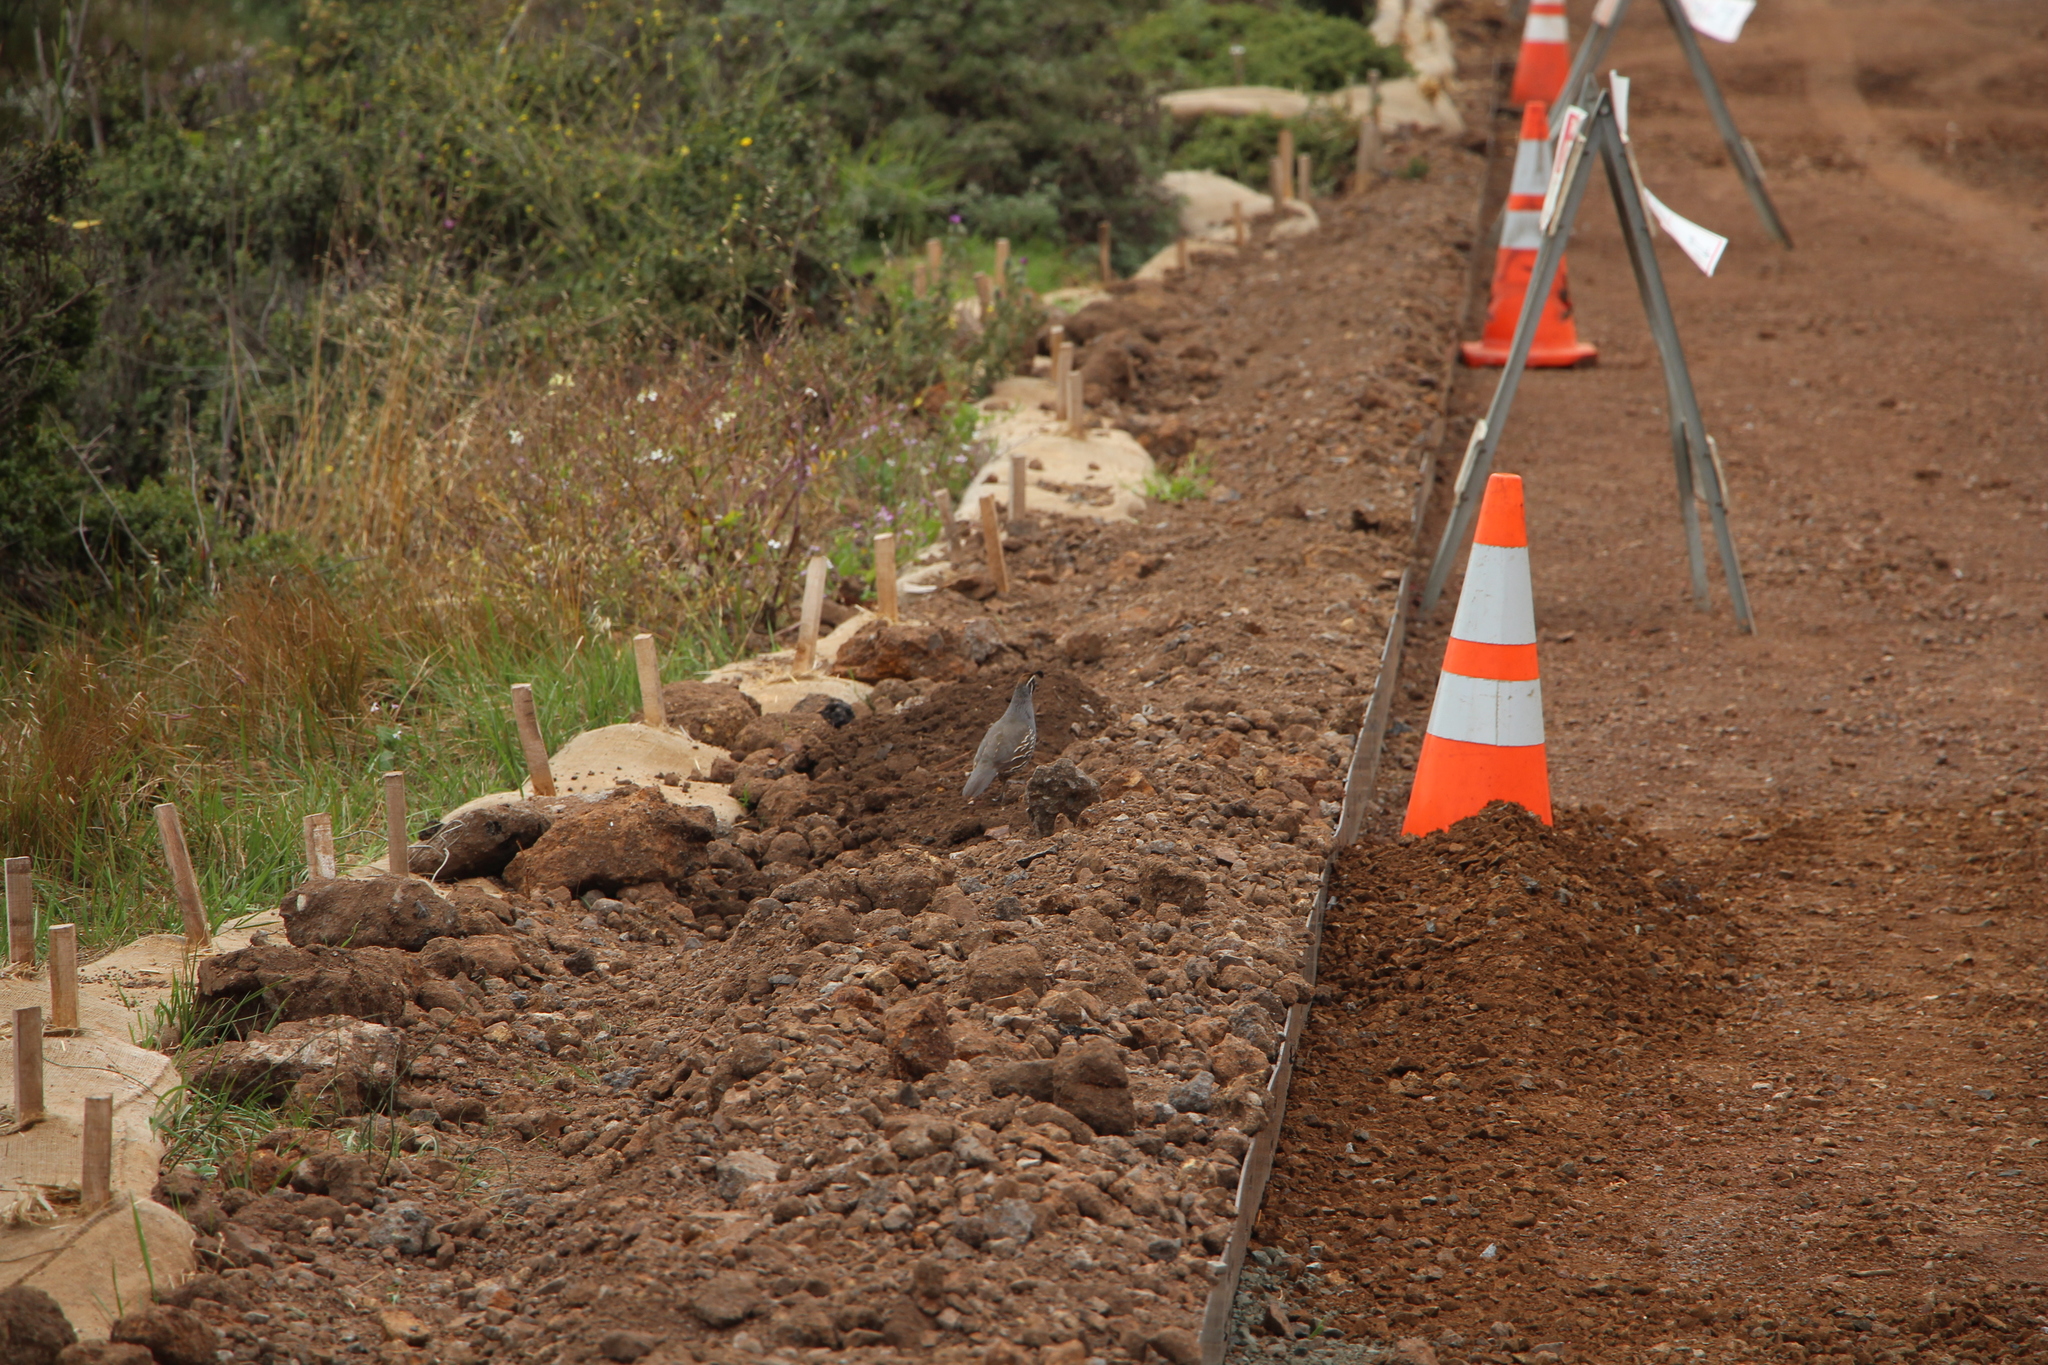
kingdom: Animalia
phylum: Chordata
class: Aves
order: Galliformes
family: Odontophoridae
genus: Callipepla
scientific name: Callipepla californica
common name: California quail
